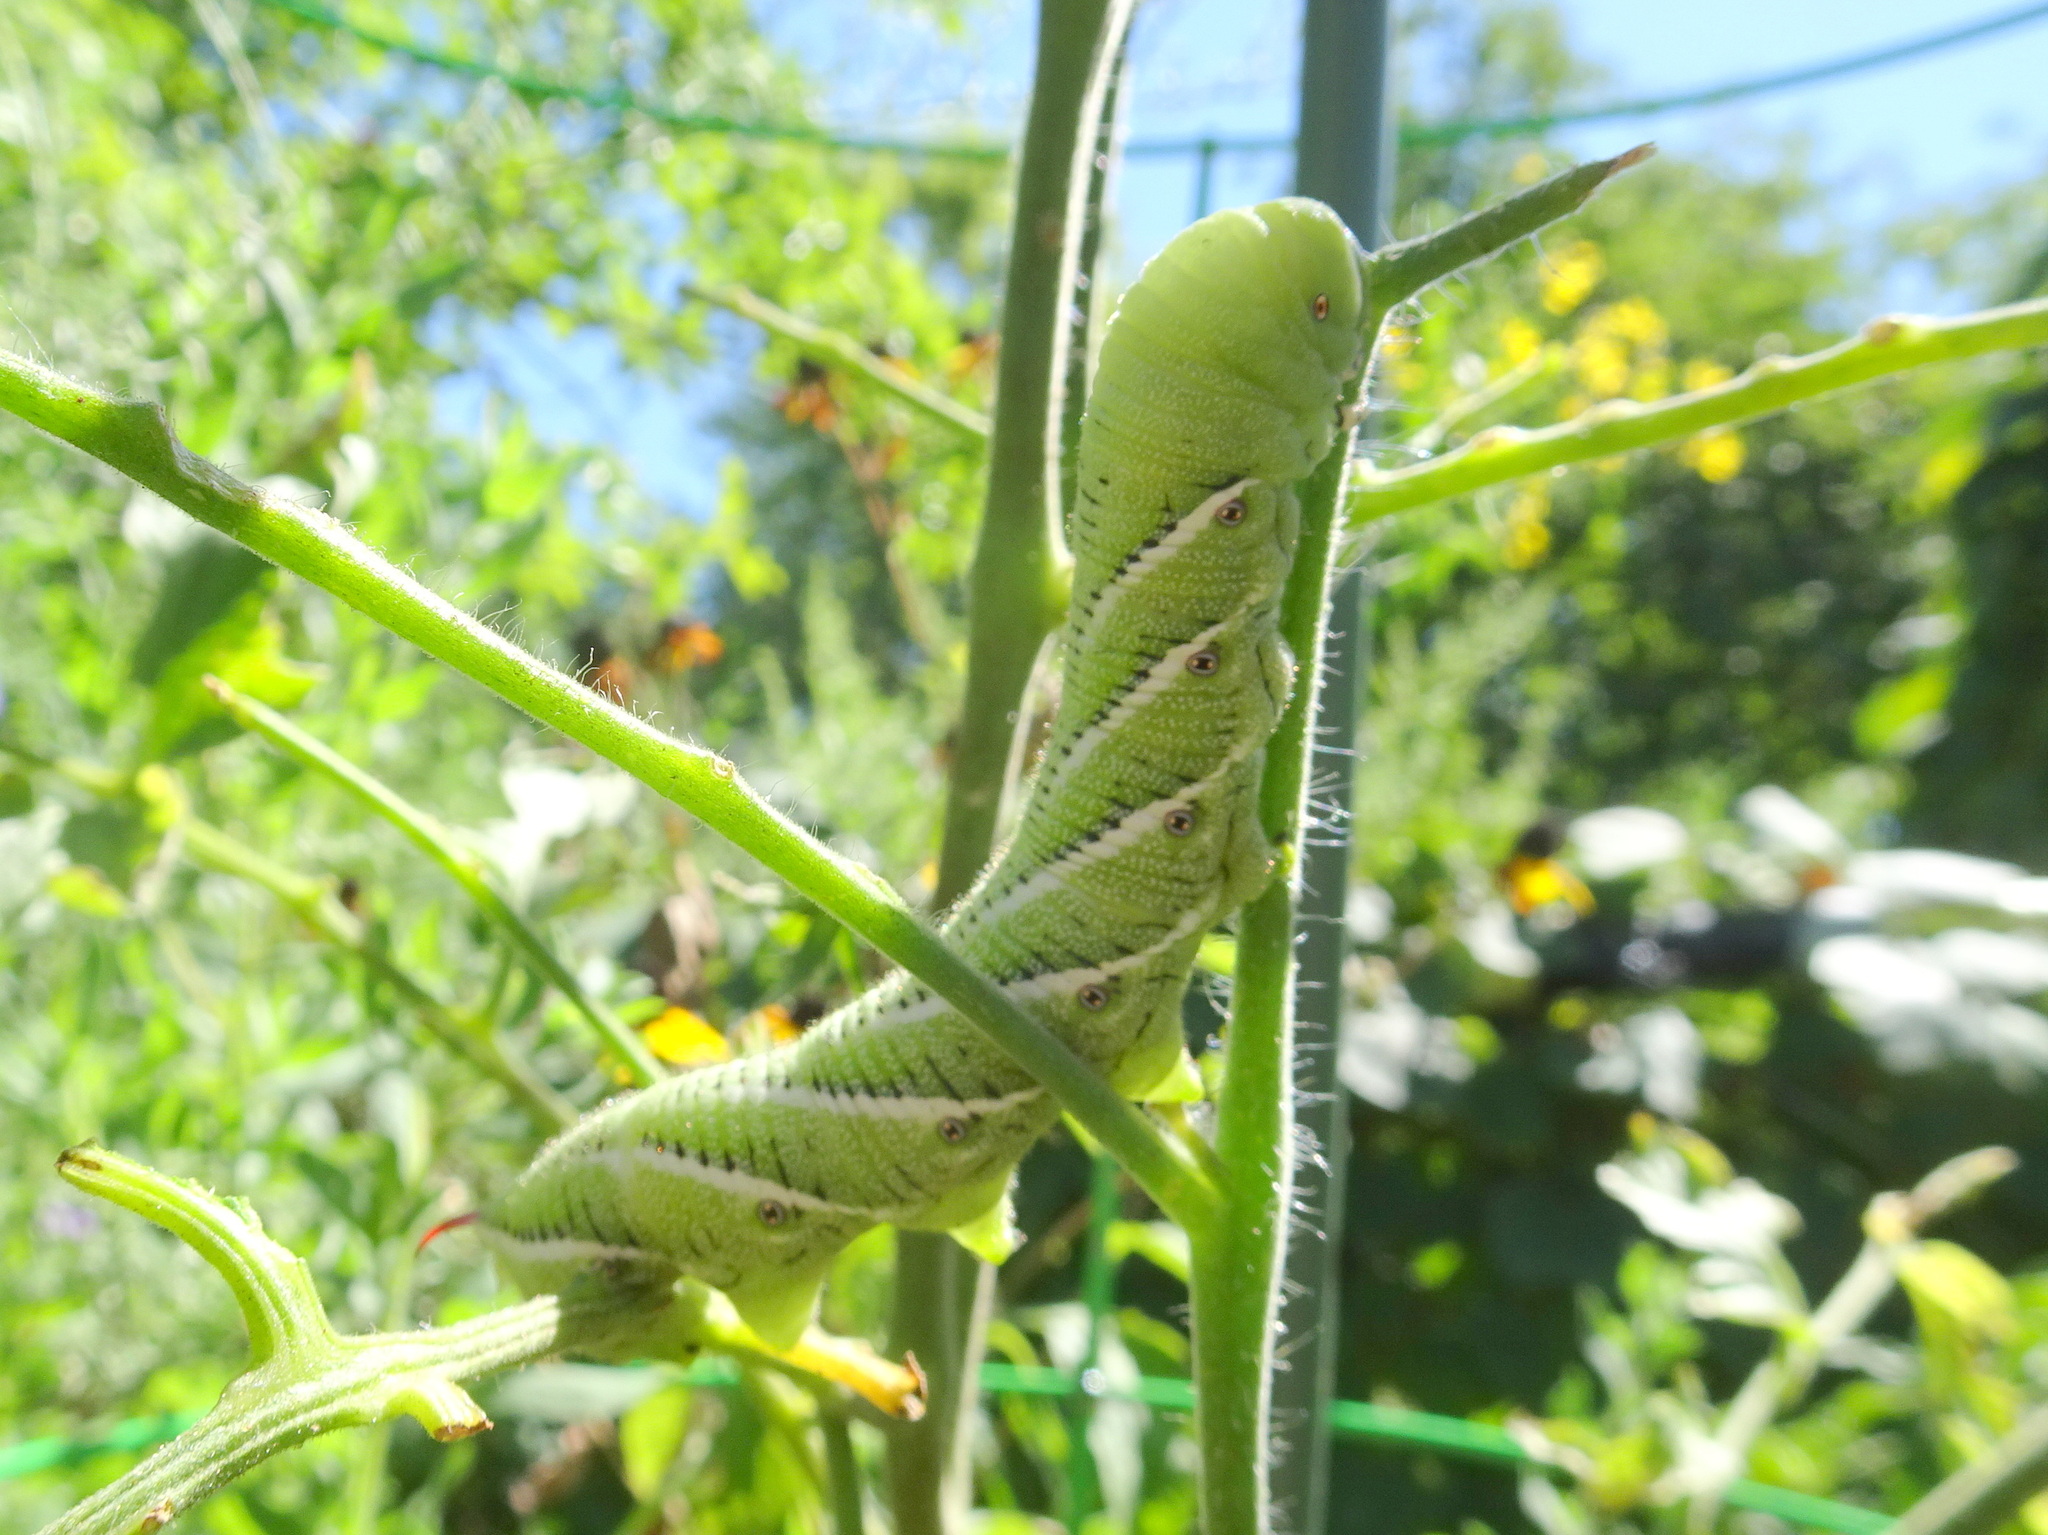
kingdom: Animalia
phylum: Arthropoda
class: Insecta
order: Lepidoptera
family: Sphingidae
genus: Manduca
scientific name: Manduca sexta
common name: Carolina sphinx
